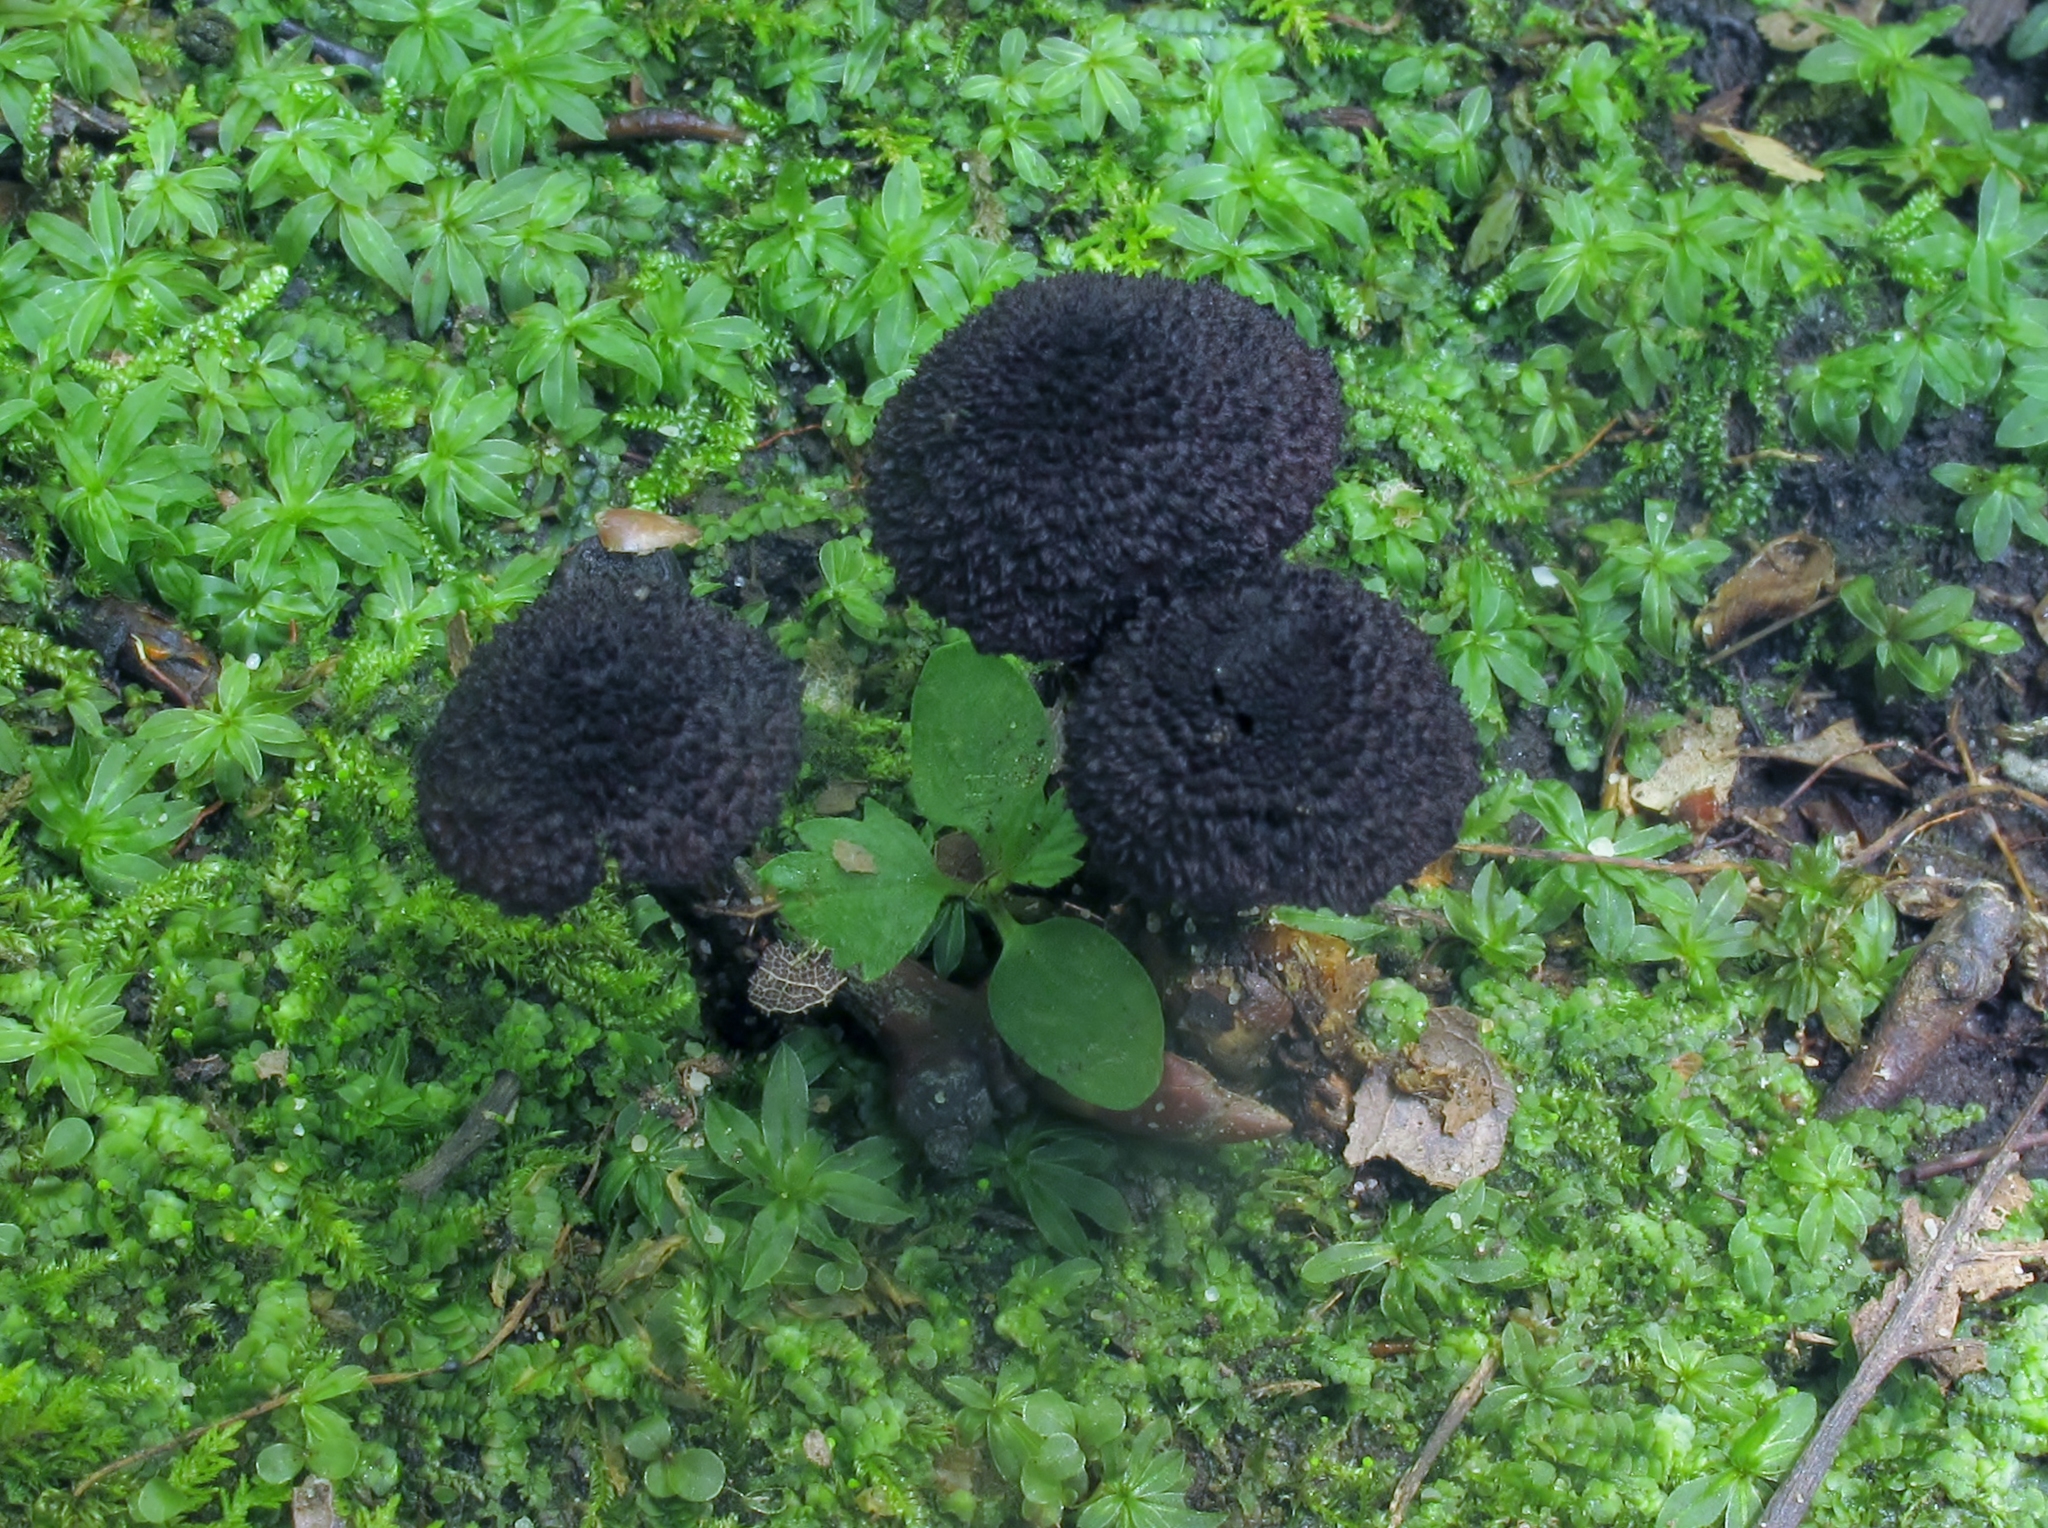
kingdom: Fungi
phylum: Basidiomycota
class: Agaricomycetes
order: Agaricales
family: Inocybaceae
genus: Inocybe
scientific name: Inocybe tahquamenonensis
